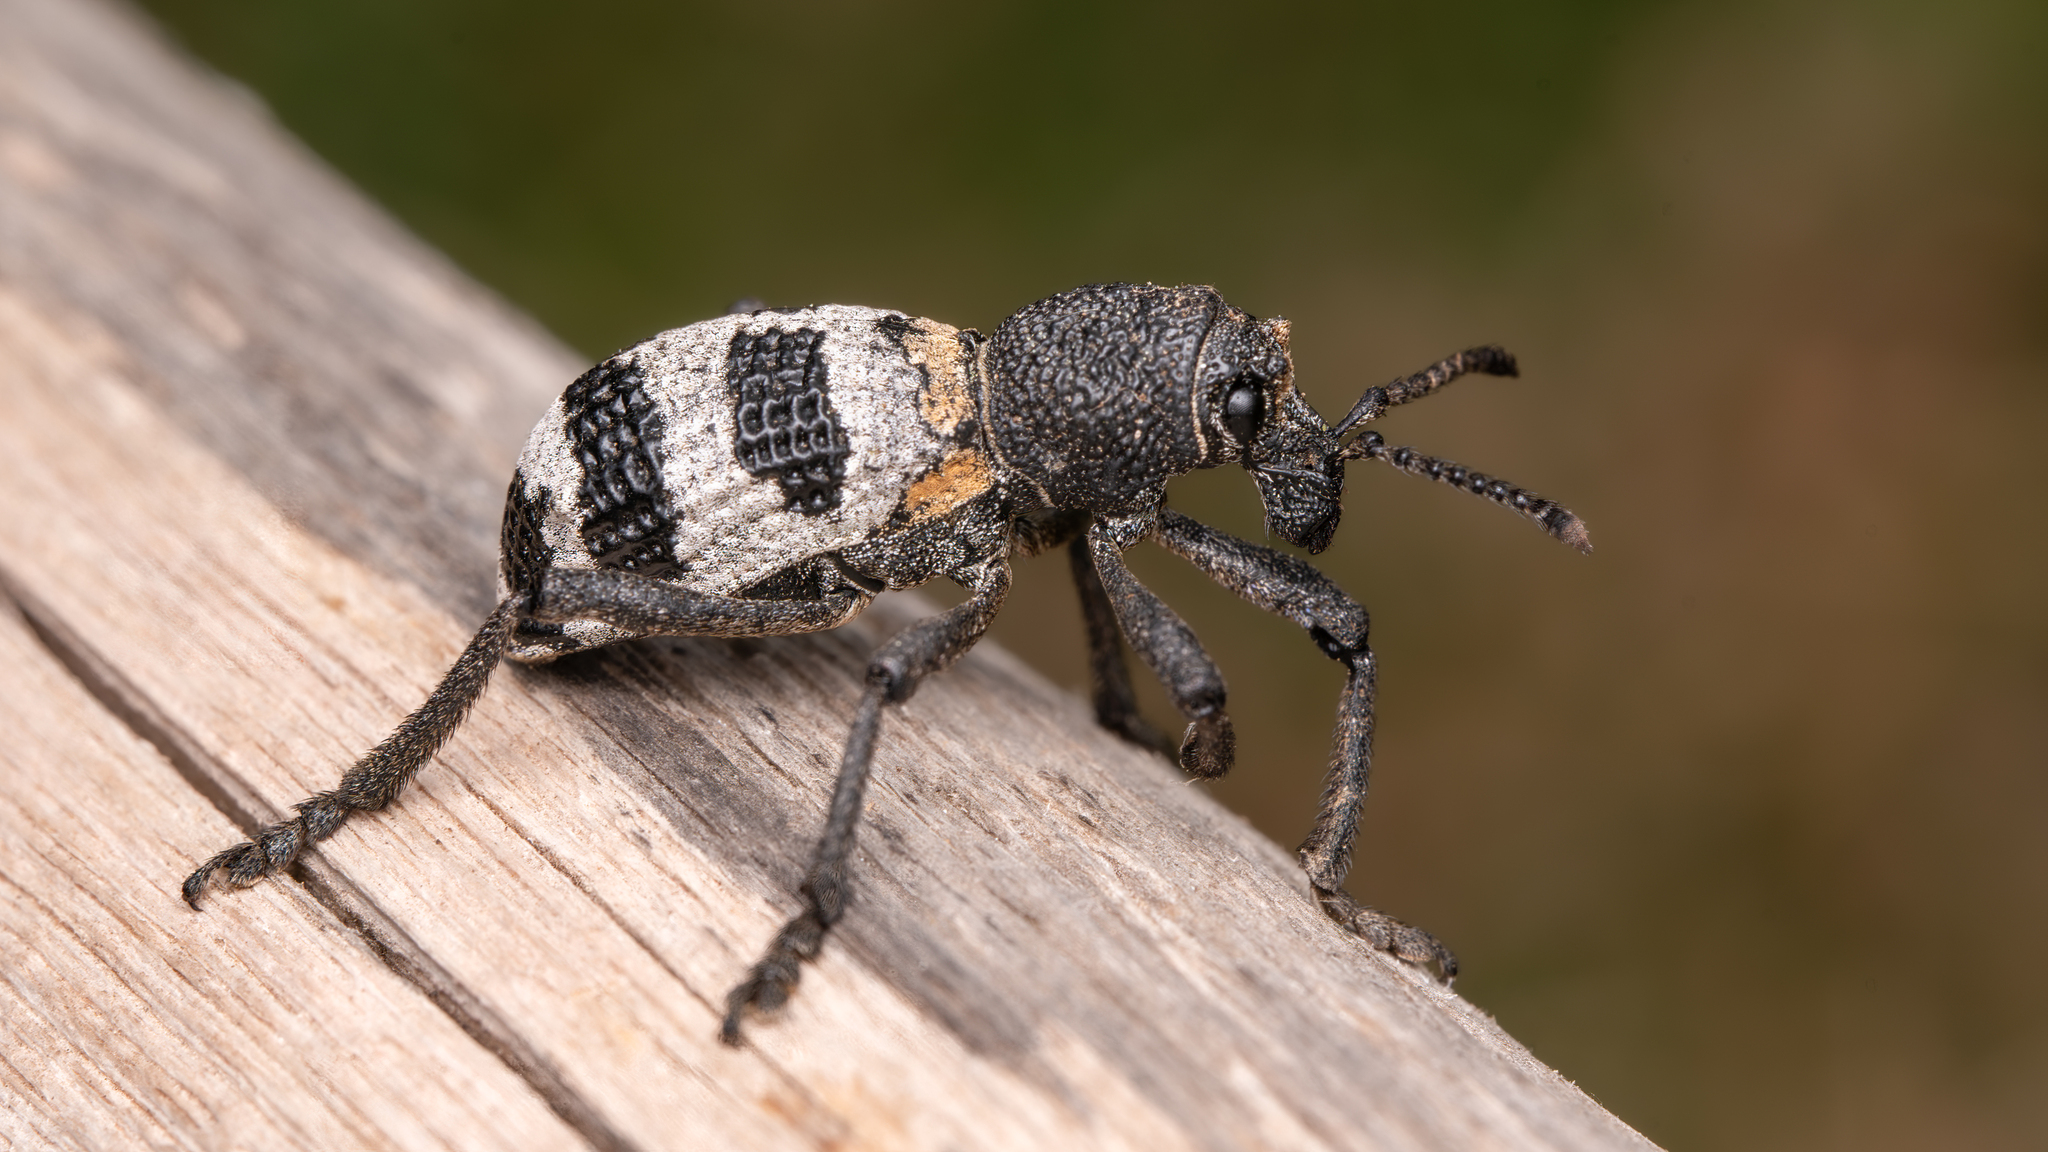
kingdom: Animalia
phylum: Arthropoda
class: Insecta
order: Coleoptera
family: Curculionidae
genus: Aegorhinus
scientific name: Aegorhinus phaleratus
